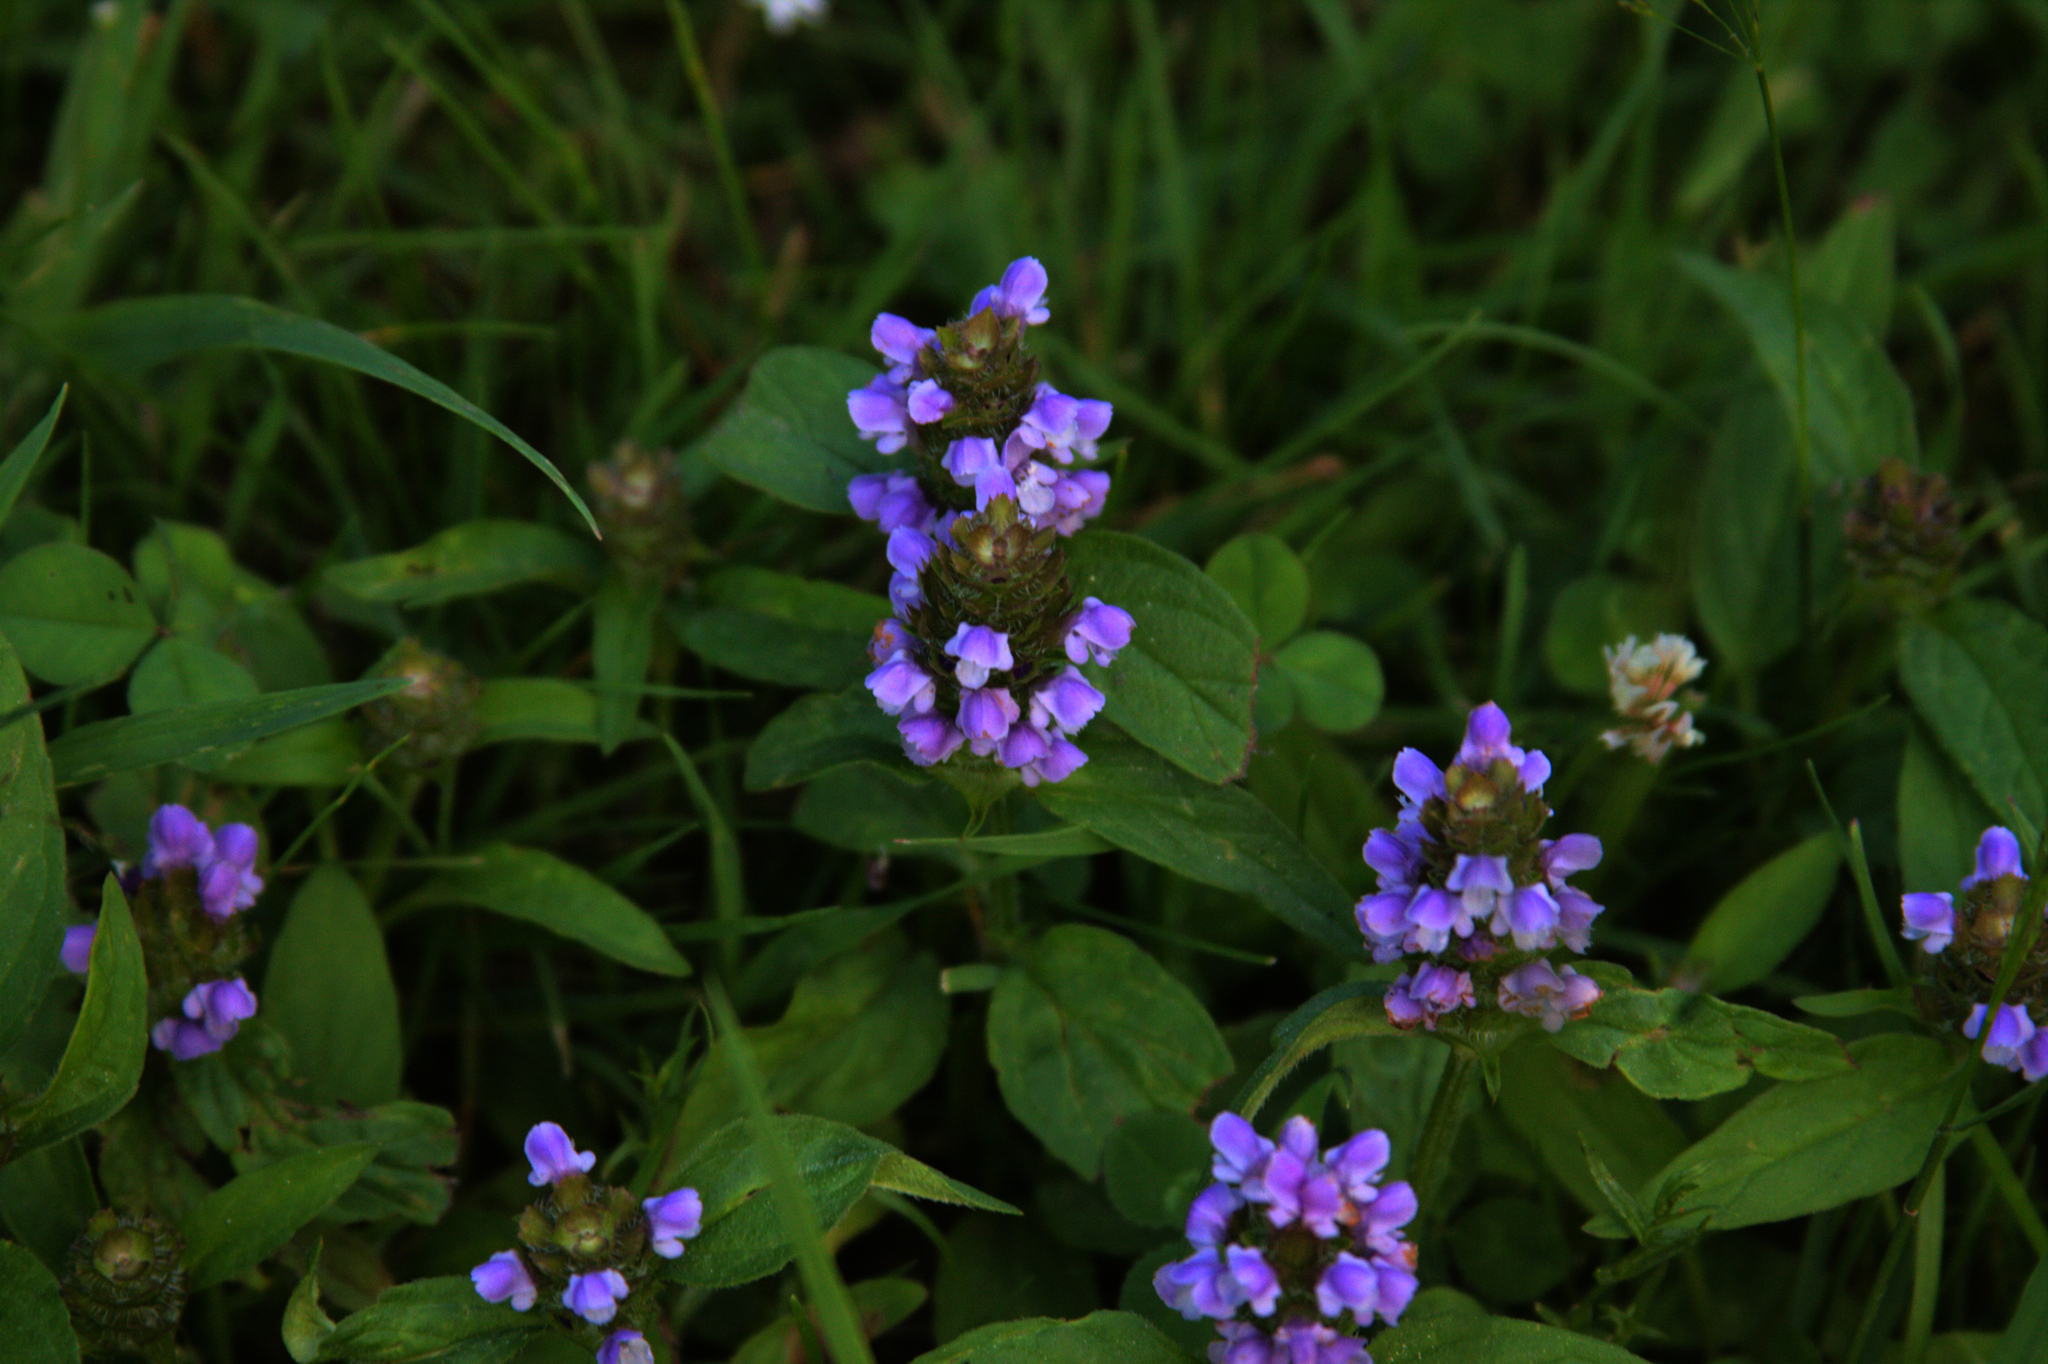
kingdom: Plantae
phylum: Tracheophyta
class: Magnoliopsida
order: Lamiales
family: Lamiaceae
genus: Prunella
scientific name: Prunella vulgaris
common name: Heal-all
